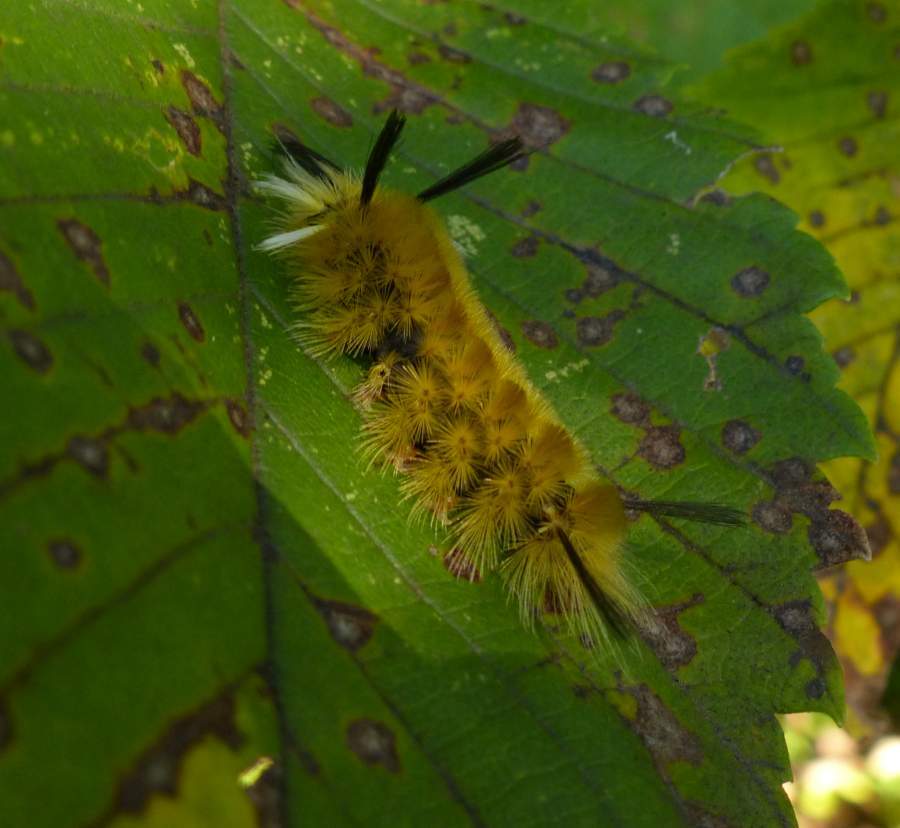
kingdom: Animalia
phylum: Arthropoda
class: Insecta
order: Lepidoptera
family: Erebidae
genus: Halysidota
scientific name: Halysidota tessellaris
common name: Banded tussock moth
